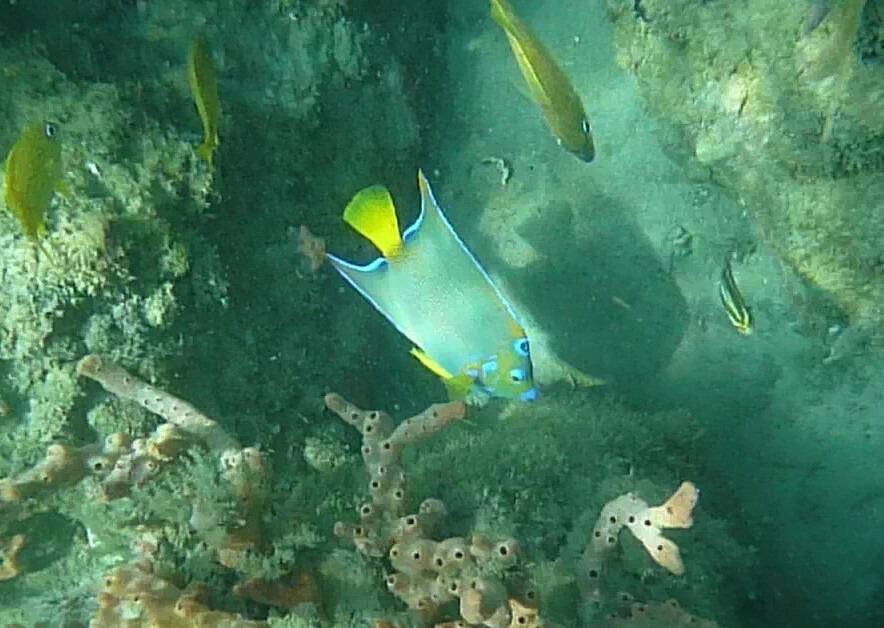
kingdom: Animalia
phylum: Chordata
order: Perciformes
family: Pomacanthidae
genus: Holacanthus
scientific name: Holacanthus ciliaris
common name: Queen angelfish
